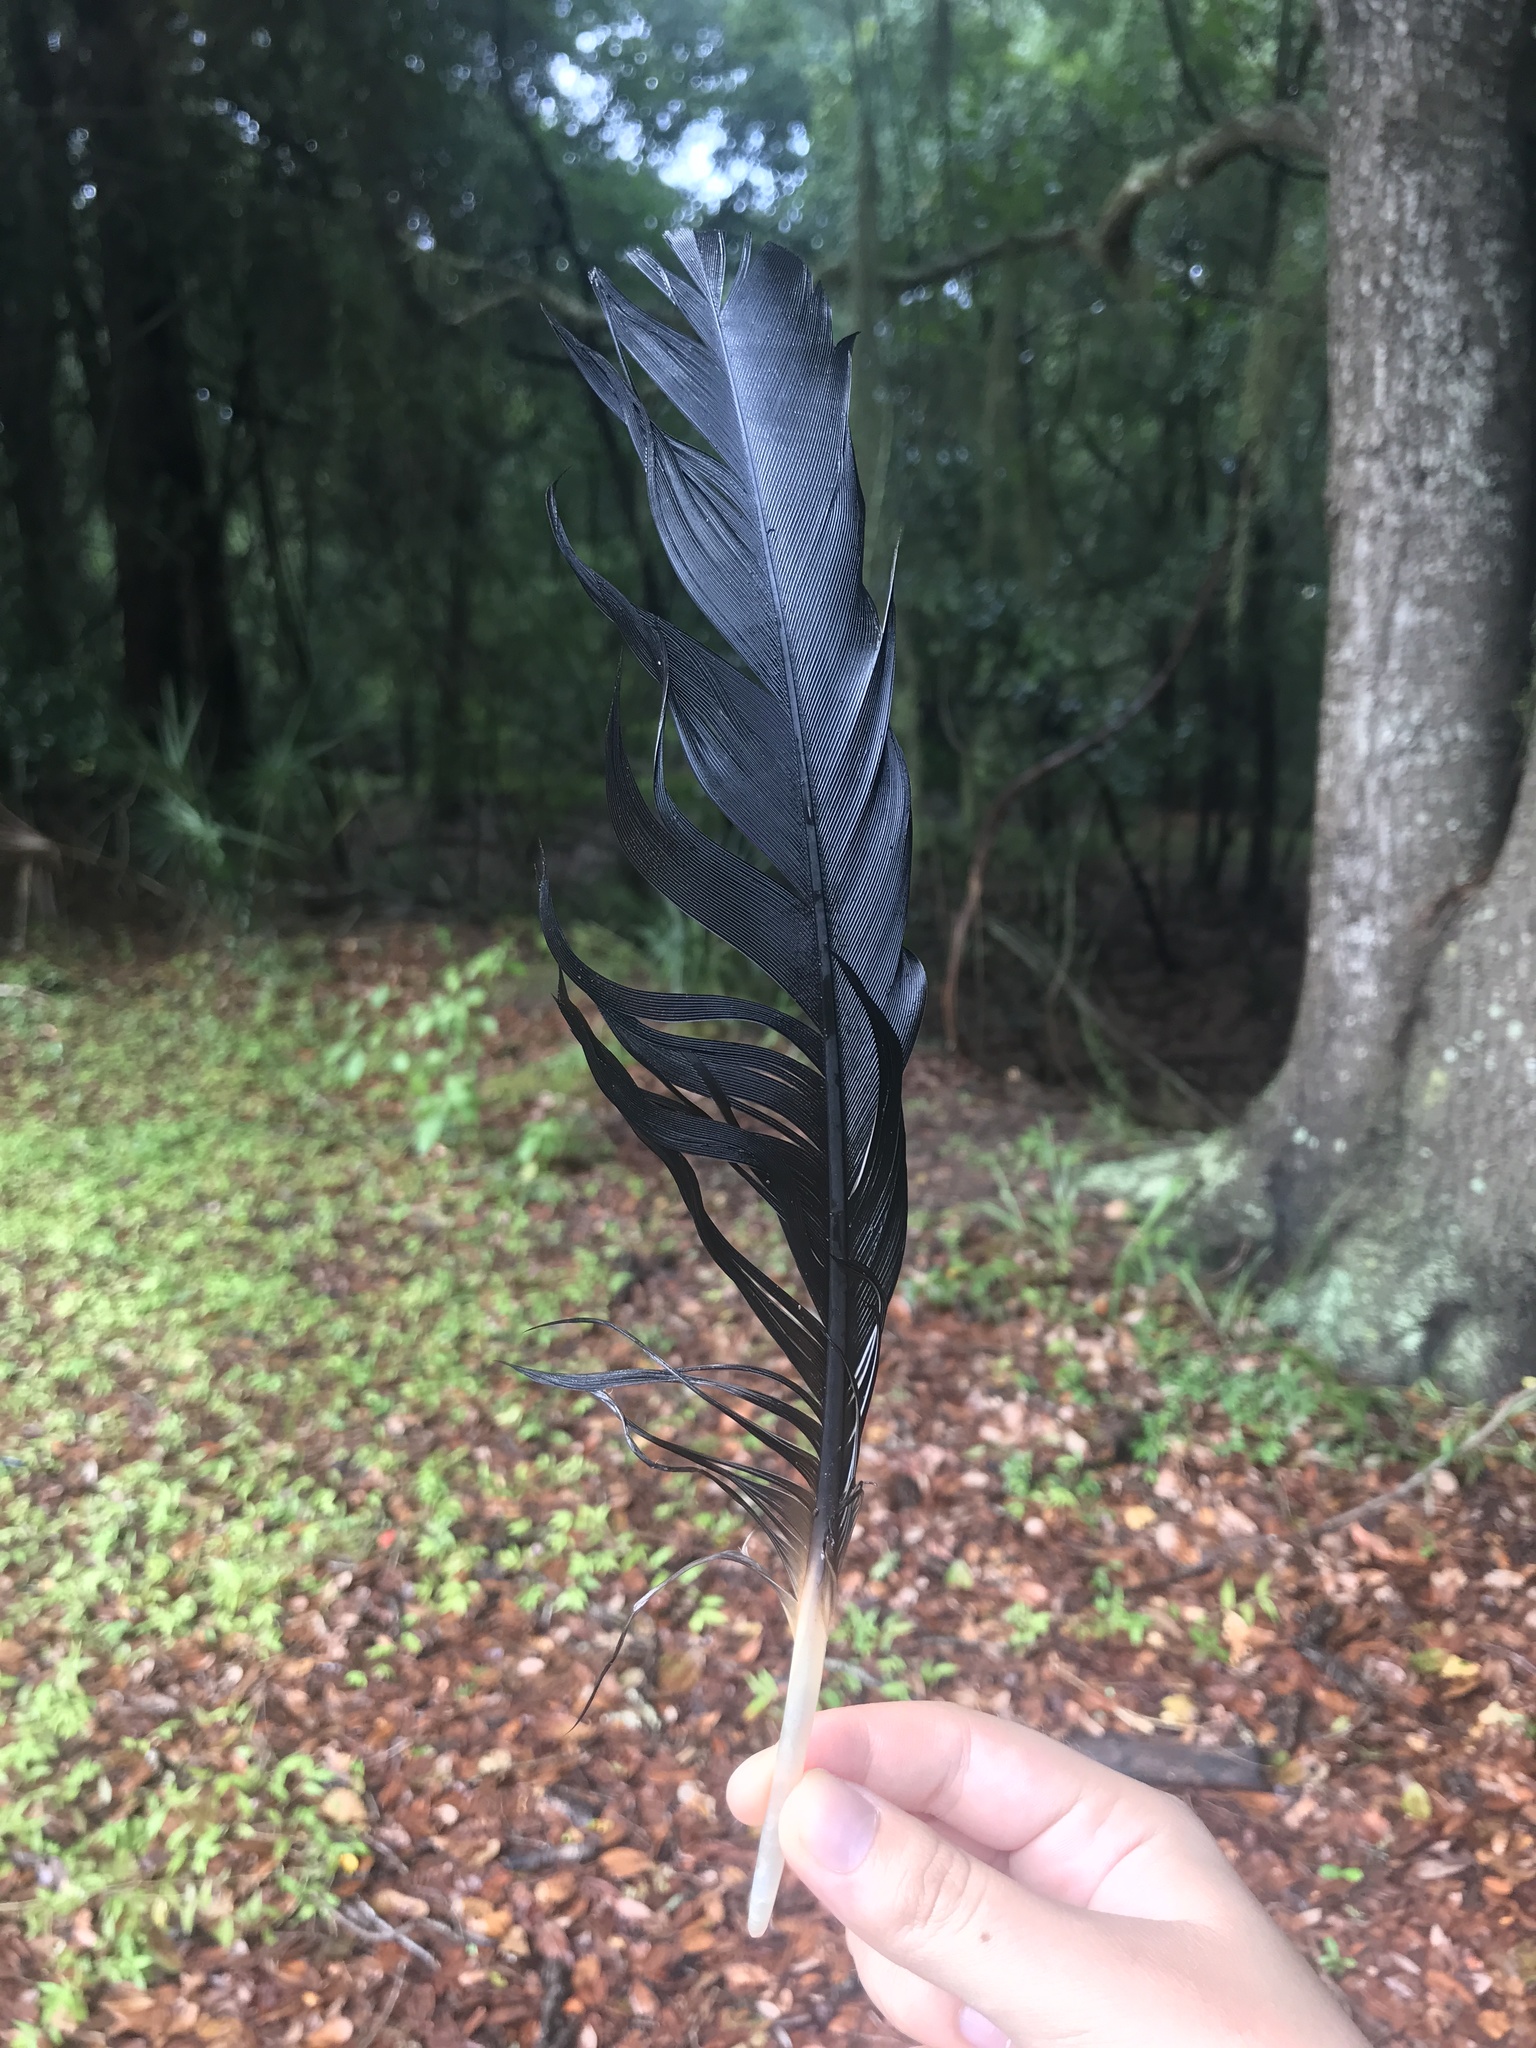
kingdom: Animalia
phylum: Chordata
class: Aves
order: Accipitriformes
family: Cathartidae
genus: Coragyps
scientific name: Coragyps atratus
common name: Black vulture
